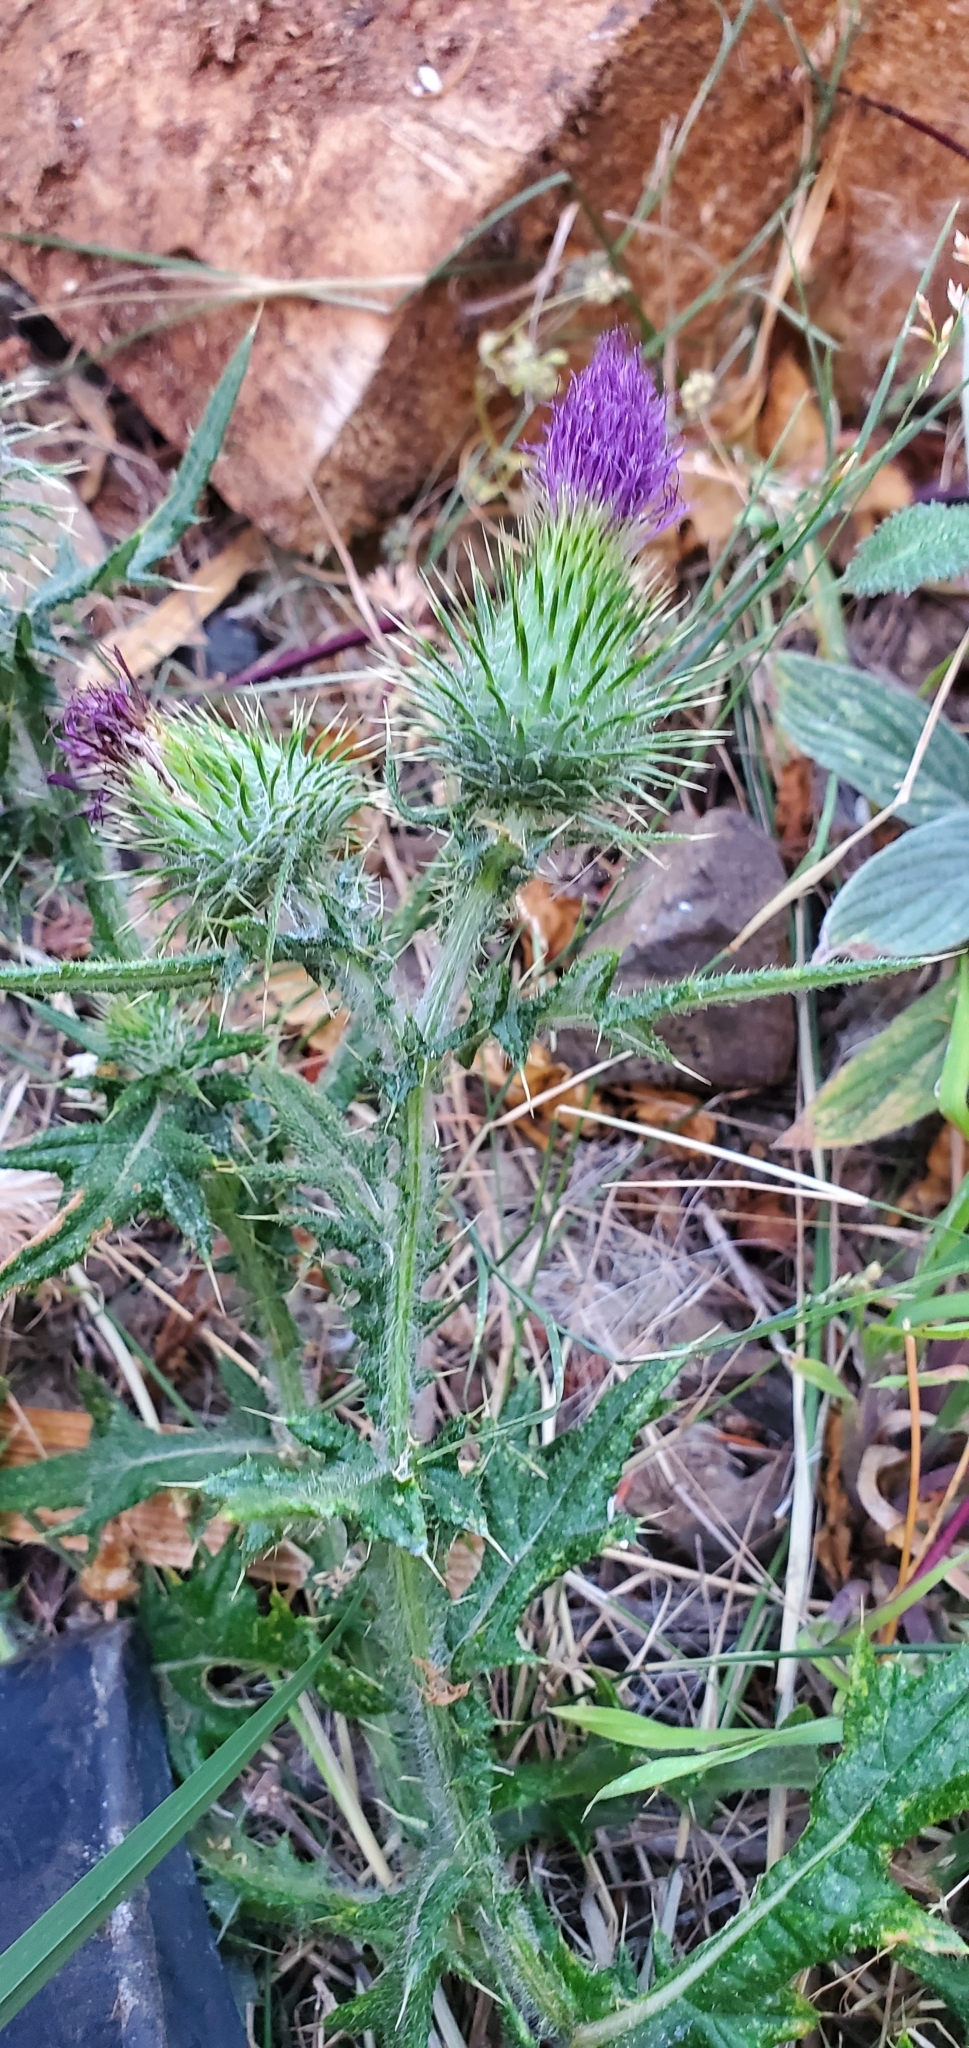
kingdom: Plantae
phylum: Tracheophyta
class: Magnoliopsida
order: Asterales
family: Asteraceae
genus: Cirsium
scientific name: Cirsium vulgare
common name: Bull thistle
